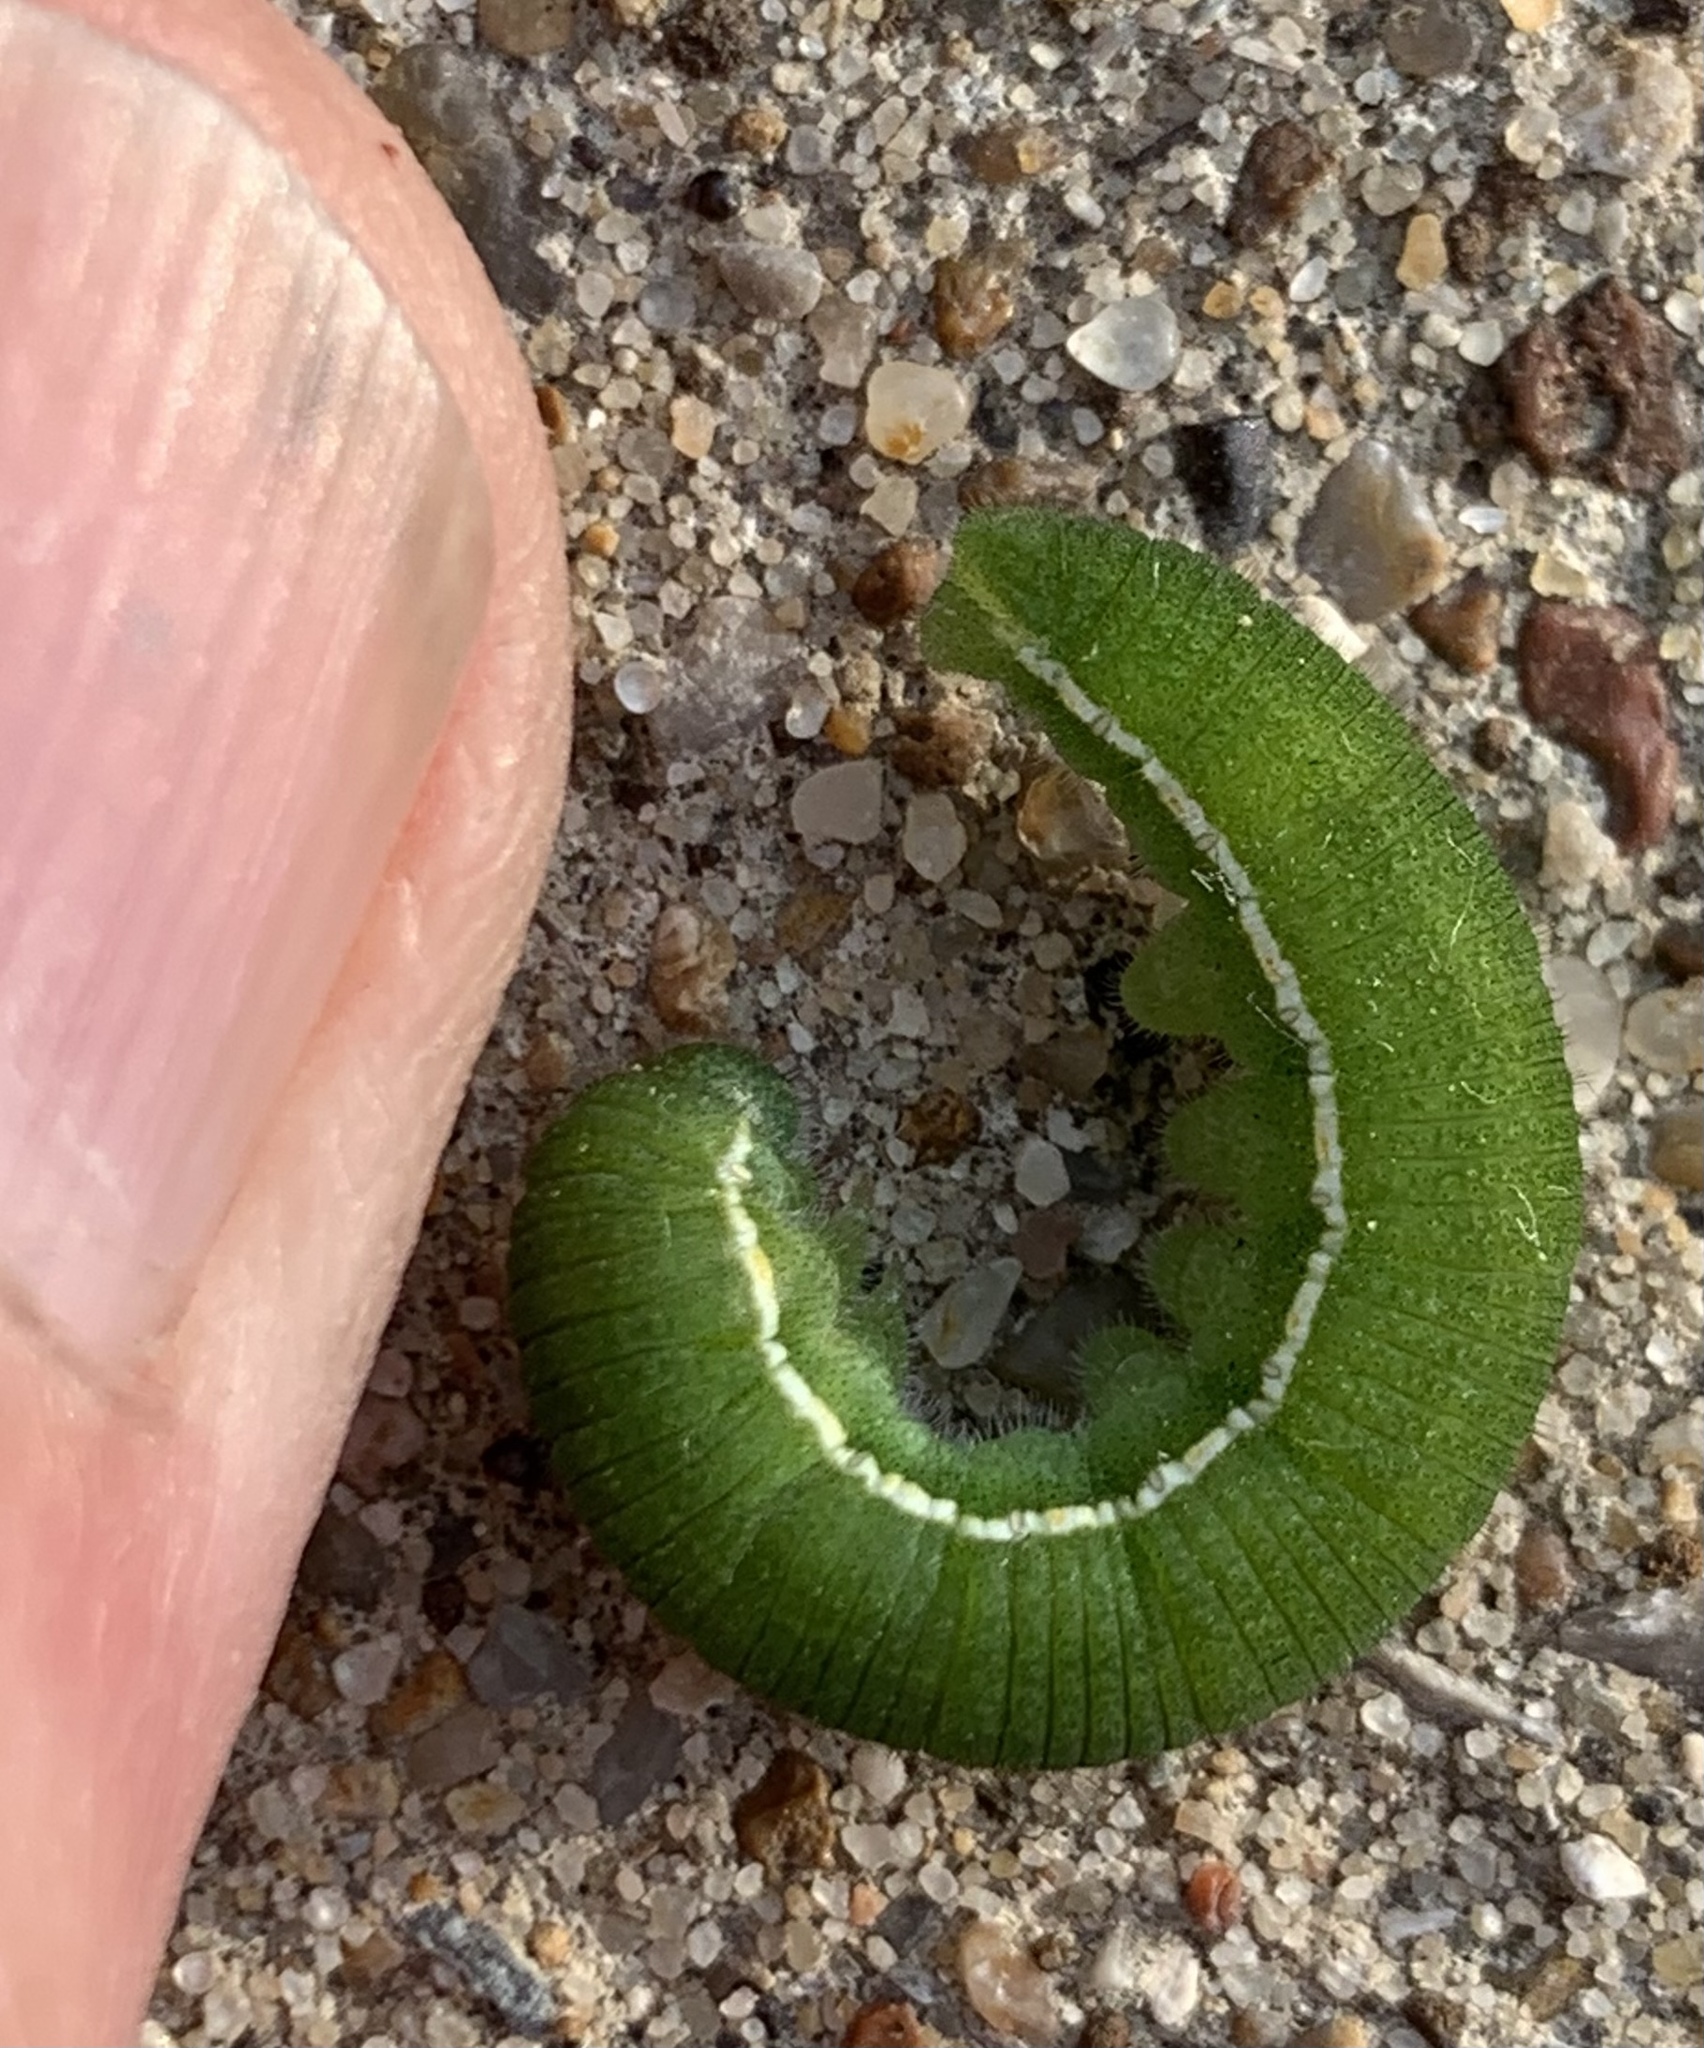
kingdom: Animalia
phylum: Arthropoda
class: Insecta
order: Lepidoptera
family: Pieridae
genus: Pyrisitia
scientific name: Pyrisitia lisa
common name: Little yellow
